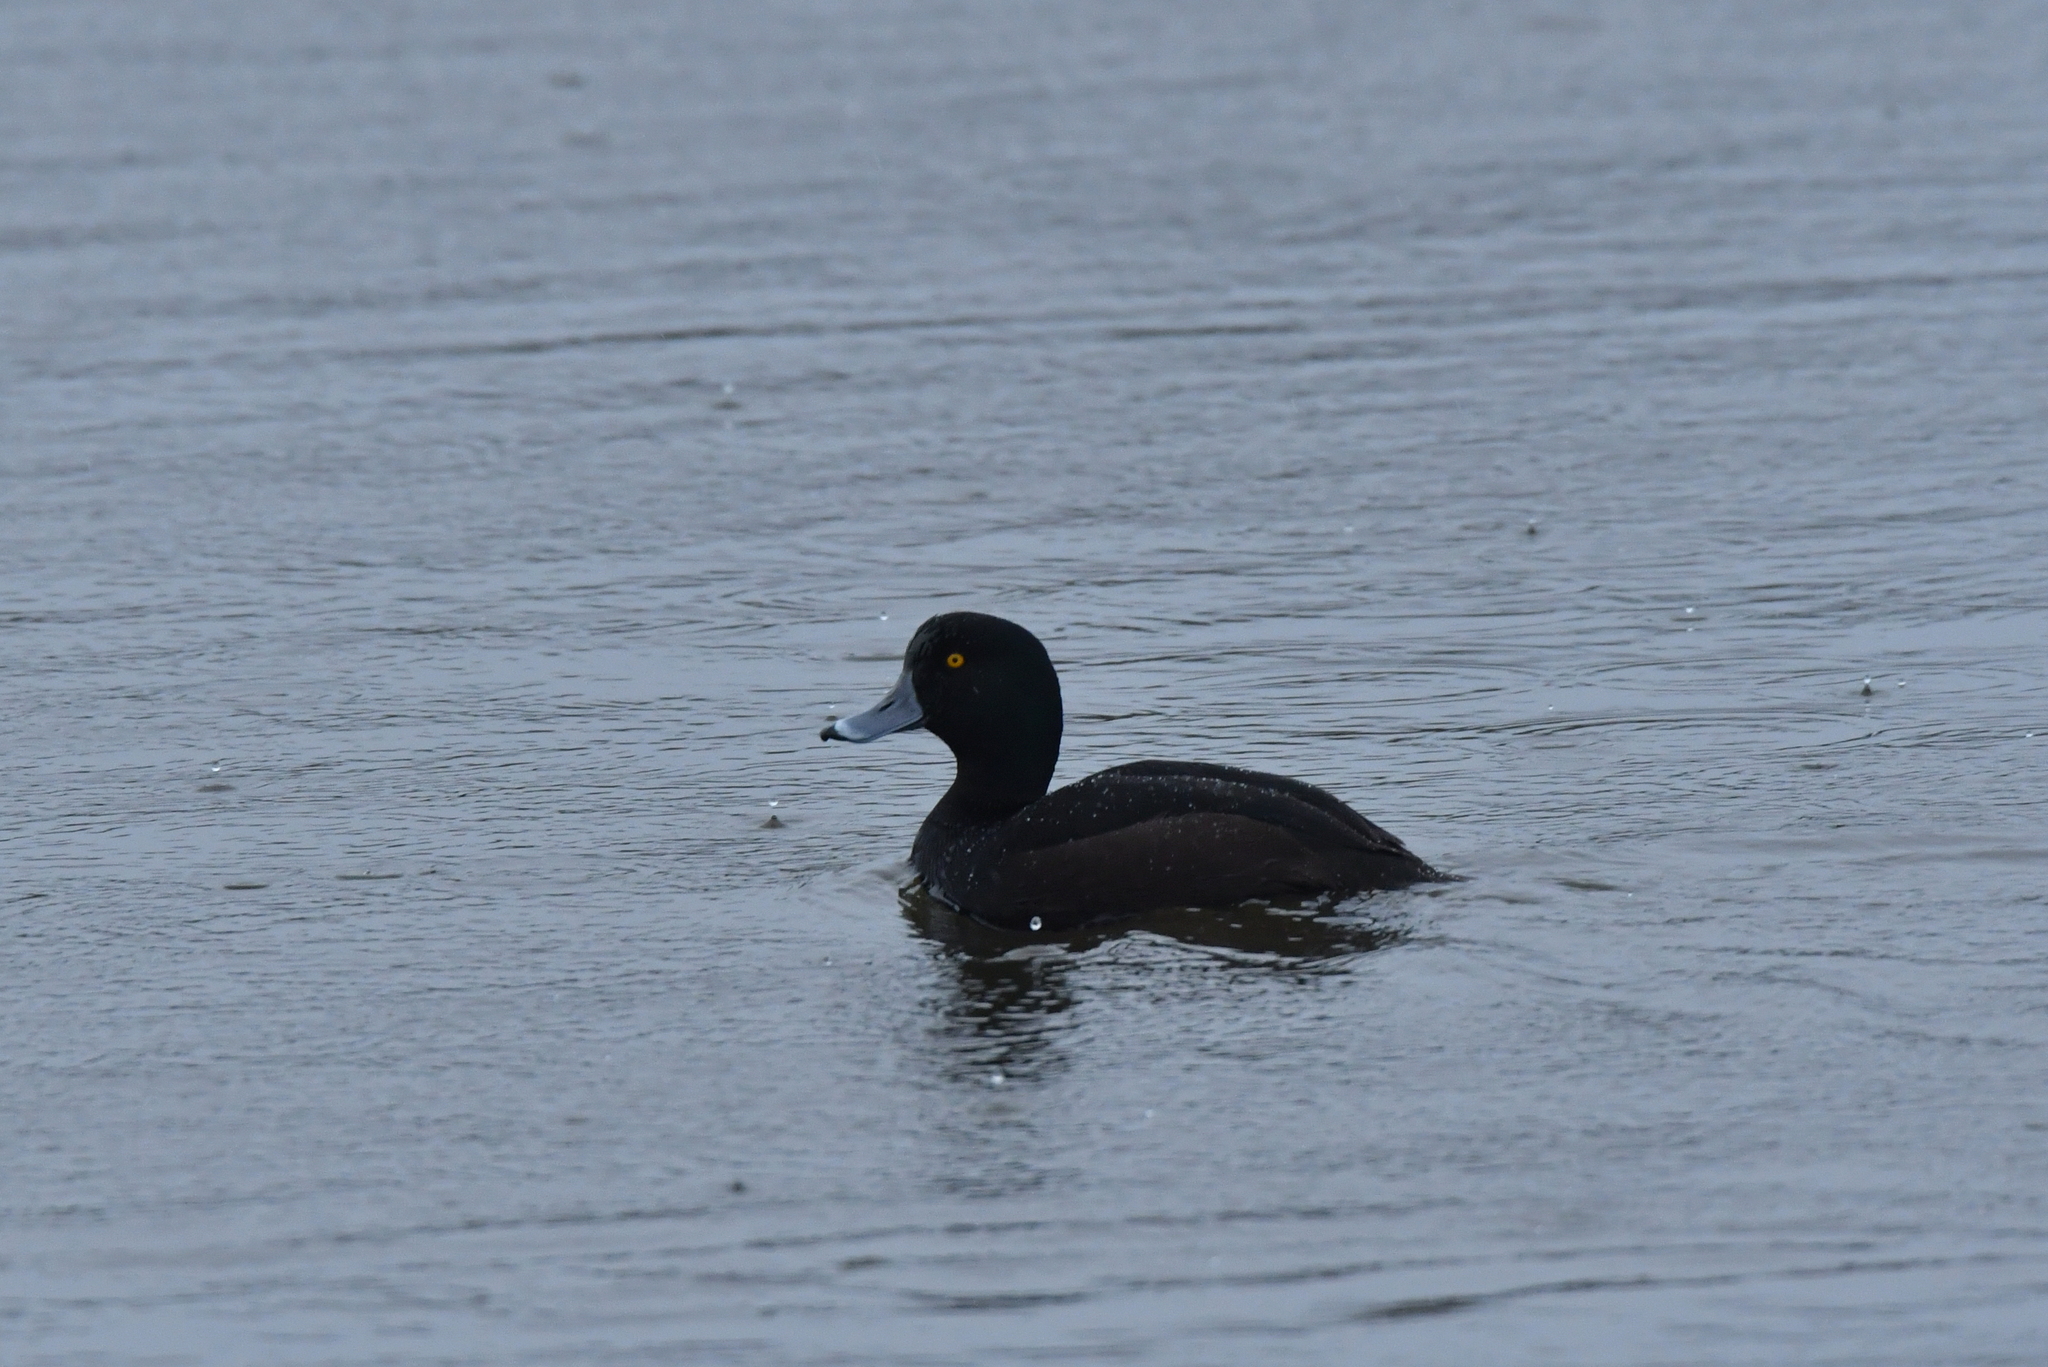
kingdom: Animalia
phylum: Chordata
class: Aves
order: Anseriformes
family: Anatidae
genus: Aythya
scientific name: Aythya novaeseelandiae
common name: New zealand scaup
